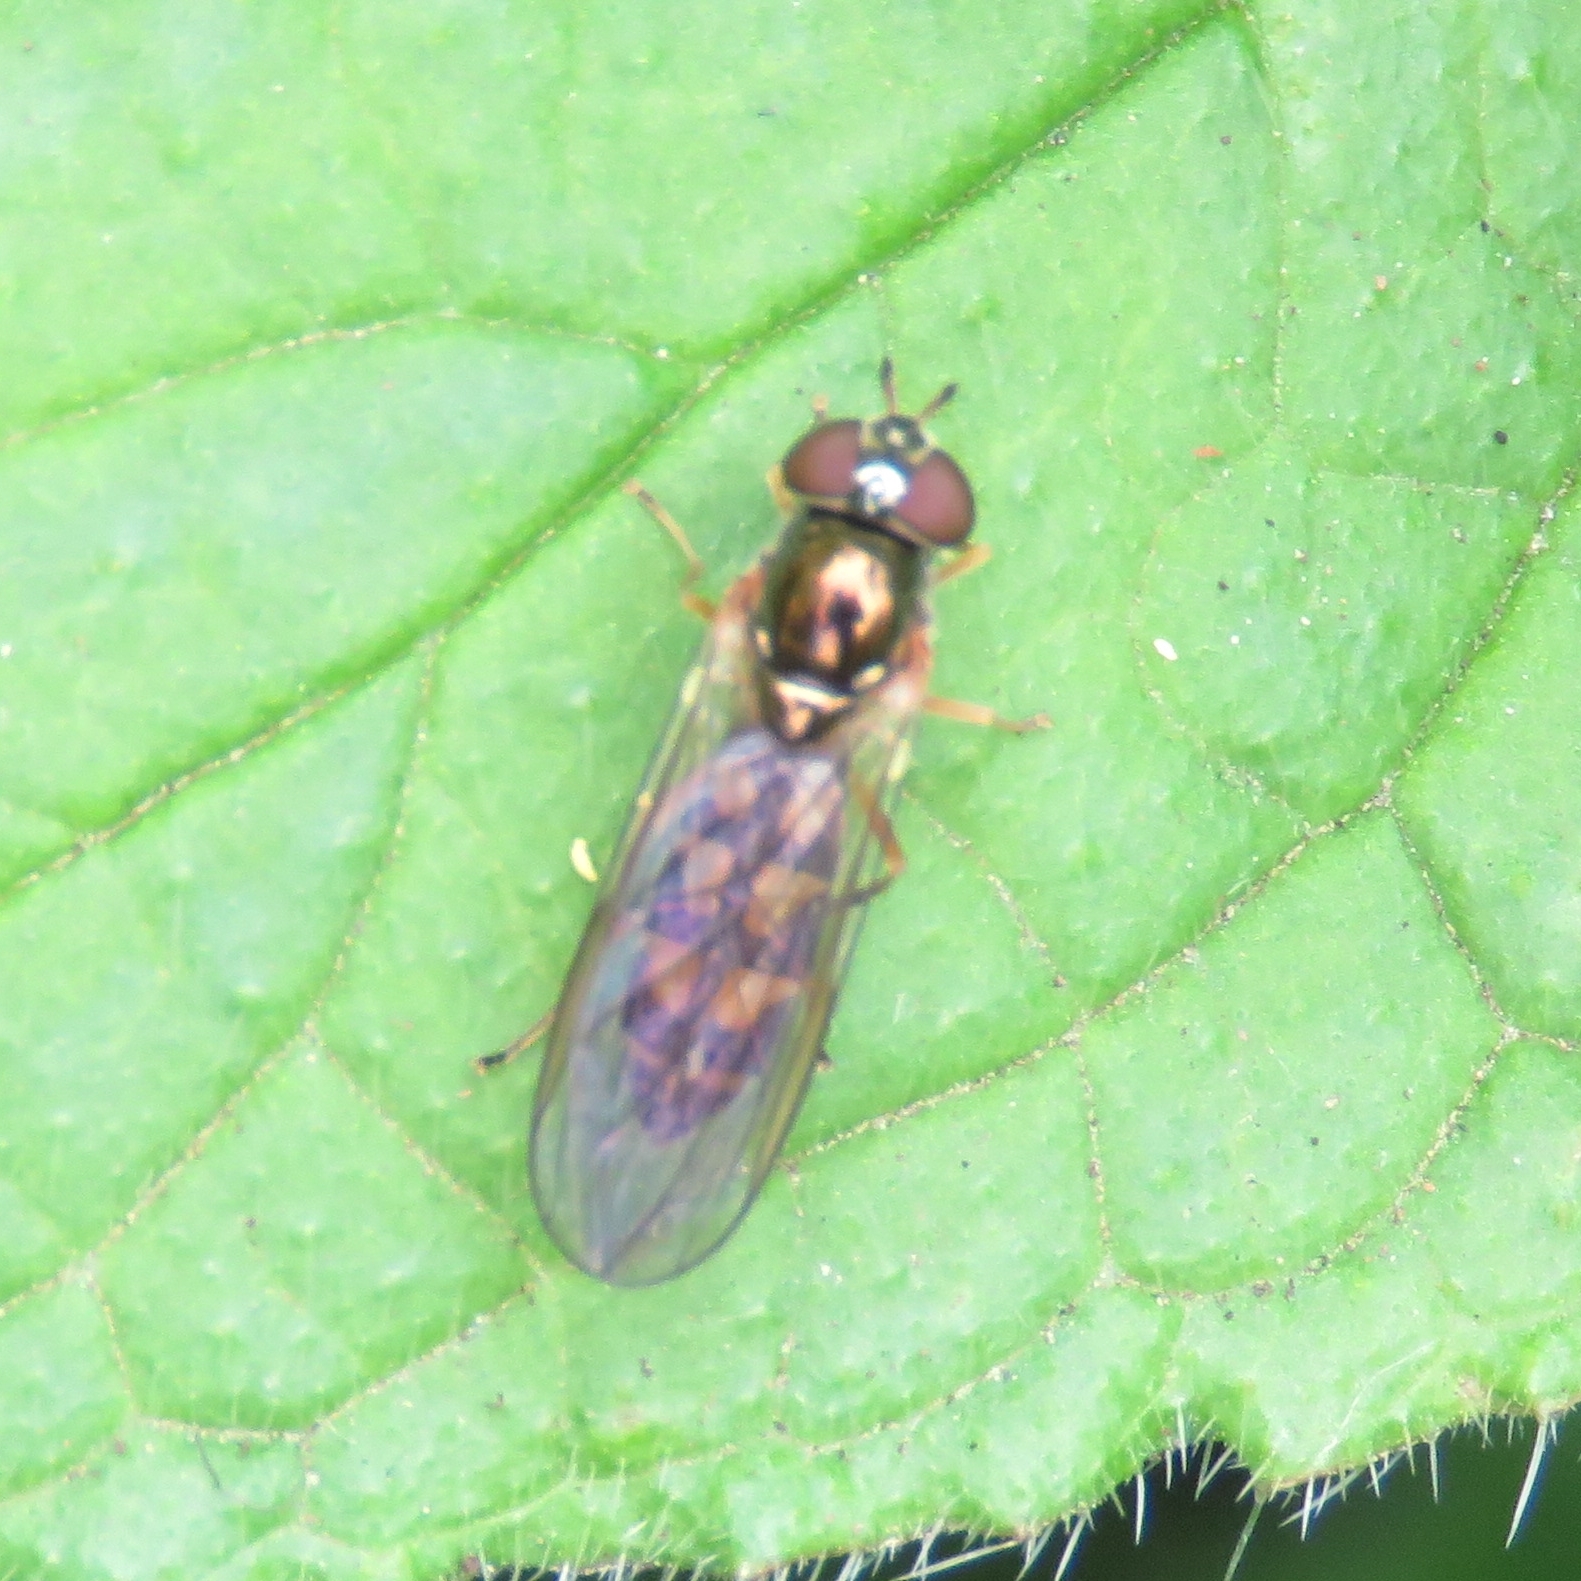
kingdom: Animalia
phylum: Arthropoda
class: Insecta
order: Diptera
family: Syrphidae
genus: Melanostoma
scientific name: Melanostoma
